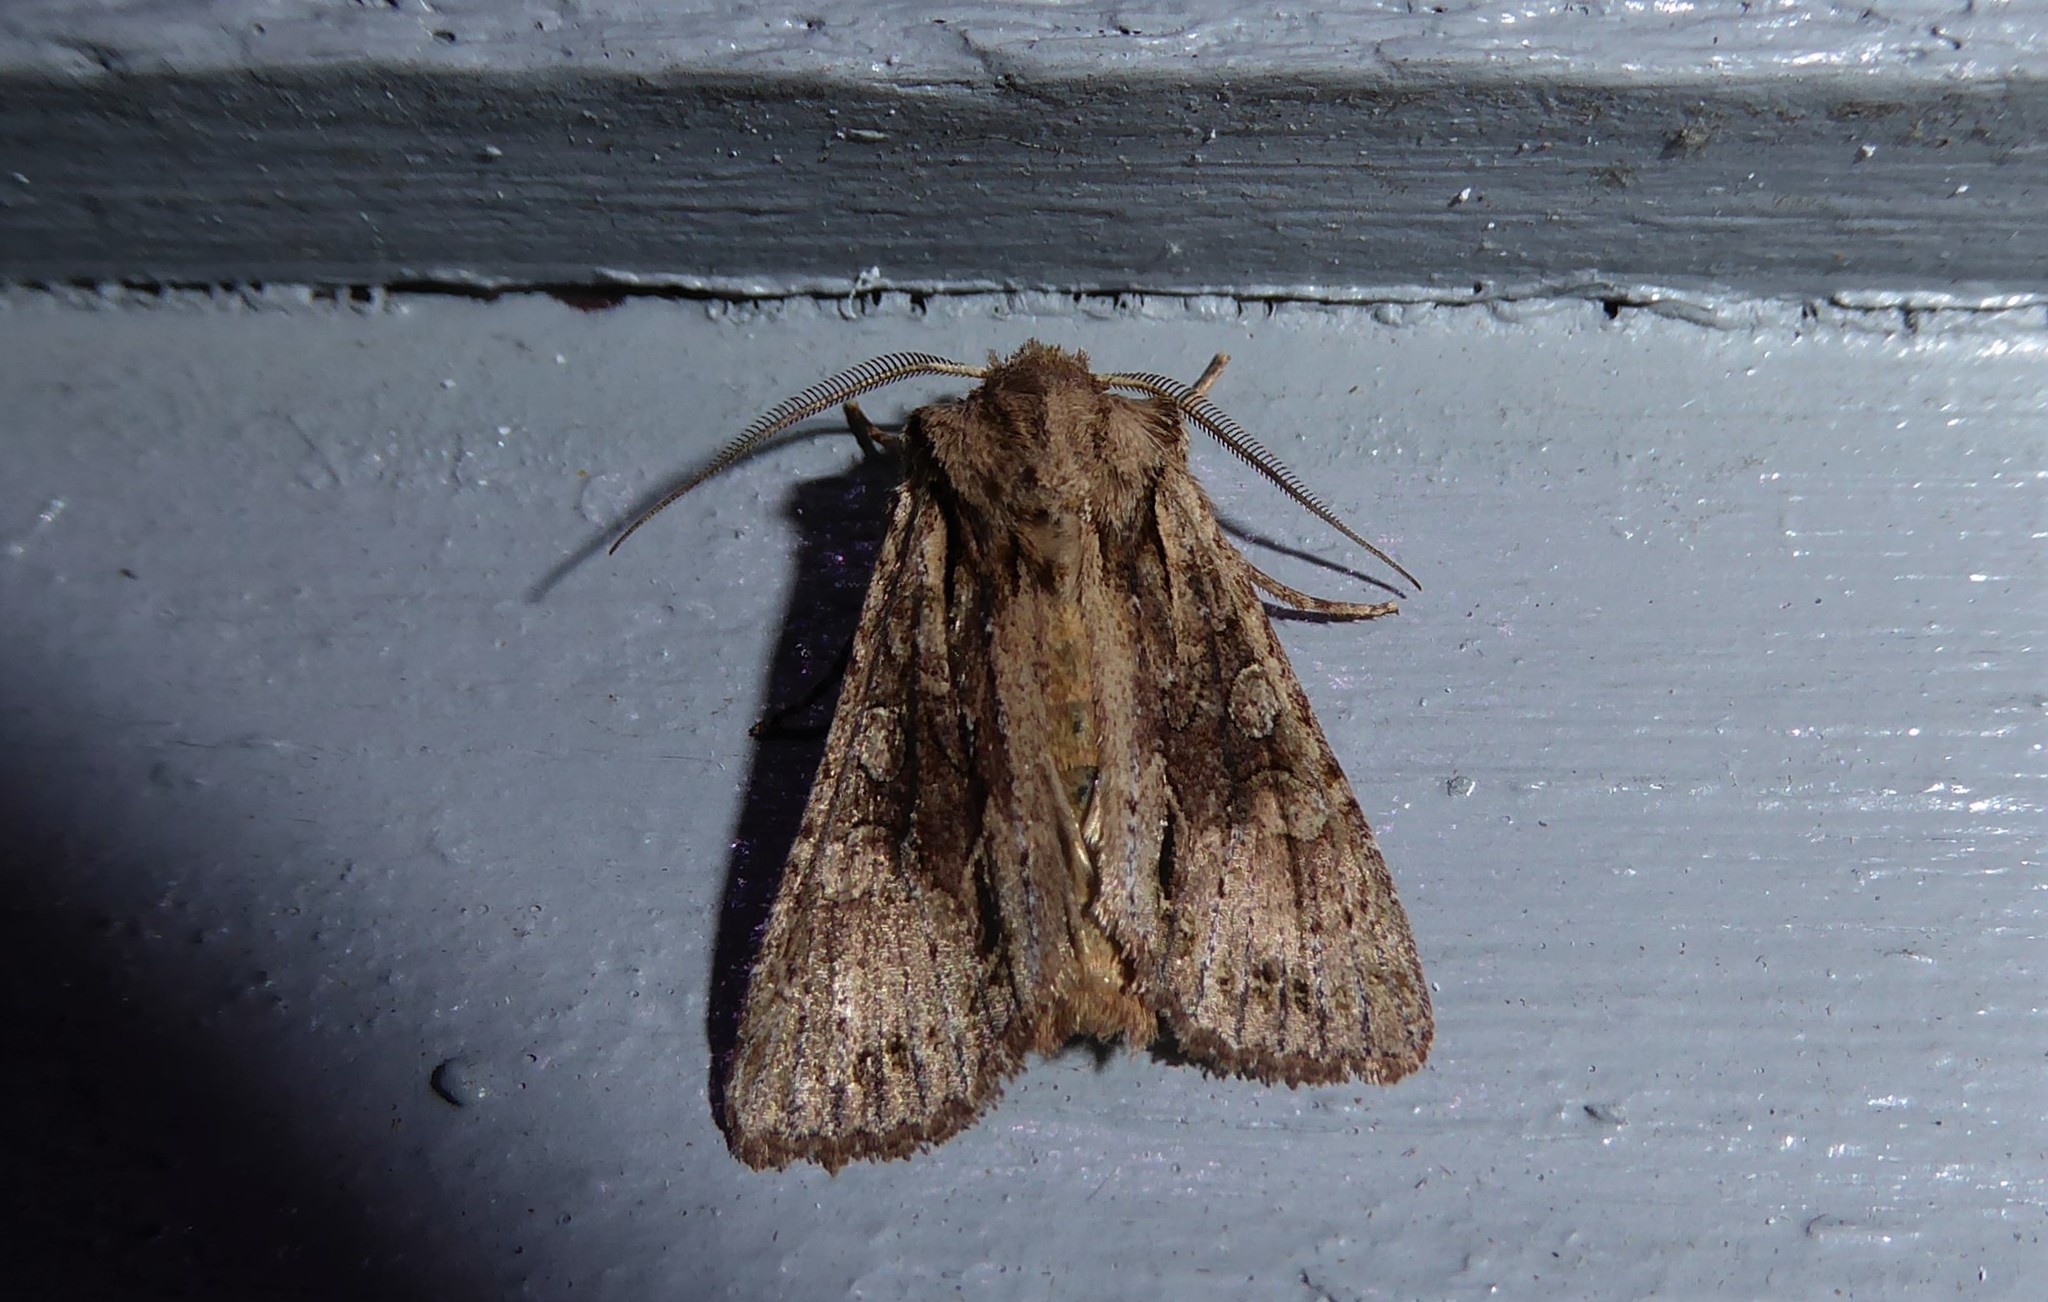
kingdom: Animalia
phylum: Arthropoda
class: Insecta
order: Lepidoptera
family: Noctuidae
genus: Ichneutica
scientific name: Ichneutica mutans
